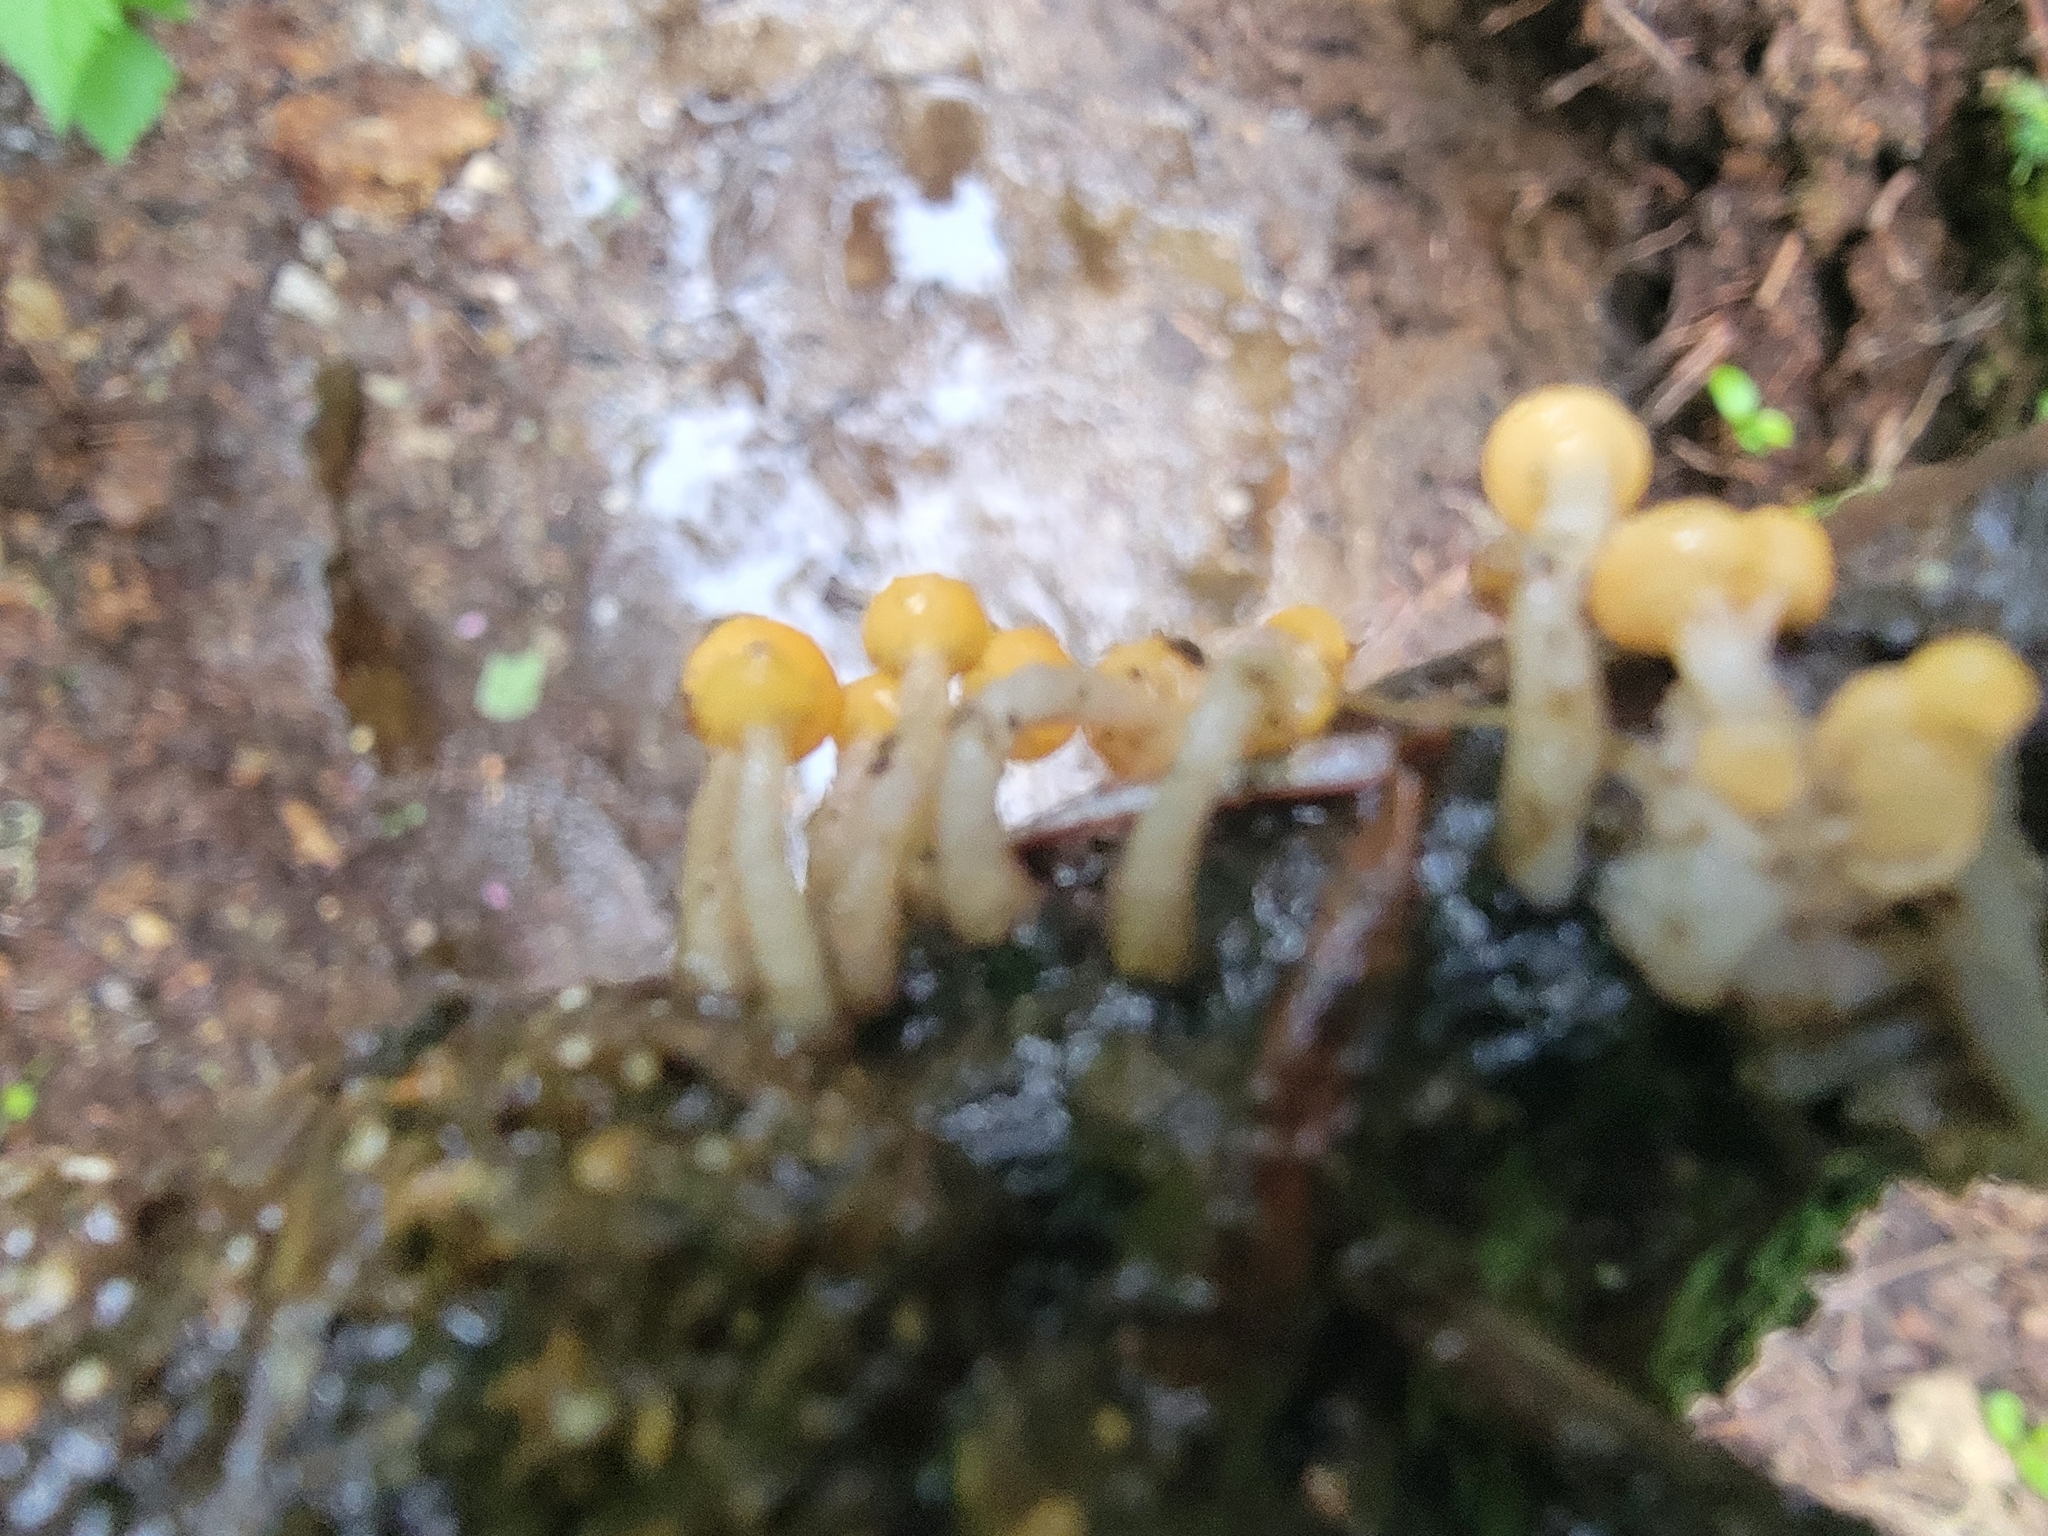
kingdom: Fungi
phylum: Ascomycota
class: Leotiomycetes
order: Helotiales
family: Vibrisseaceae
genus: Vibrissea
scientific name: Vibrissea truncorum
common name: Stream beacon
